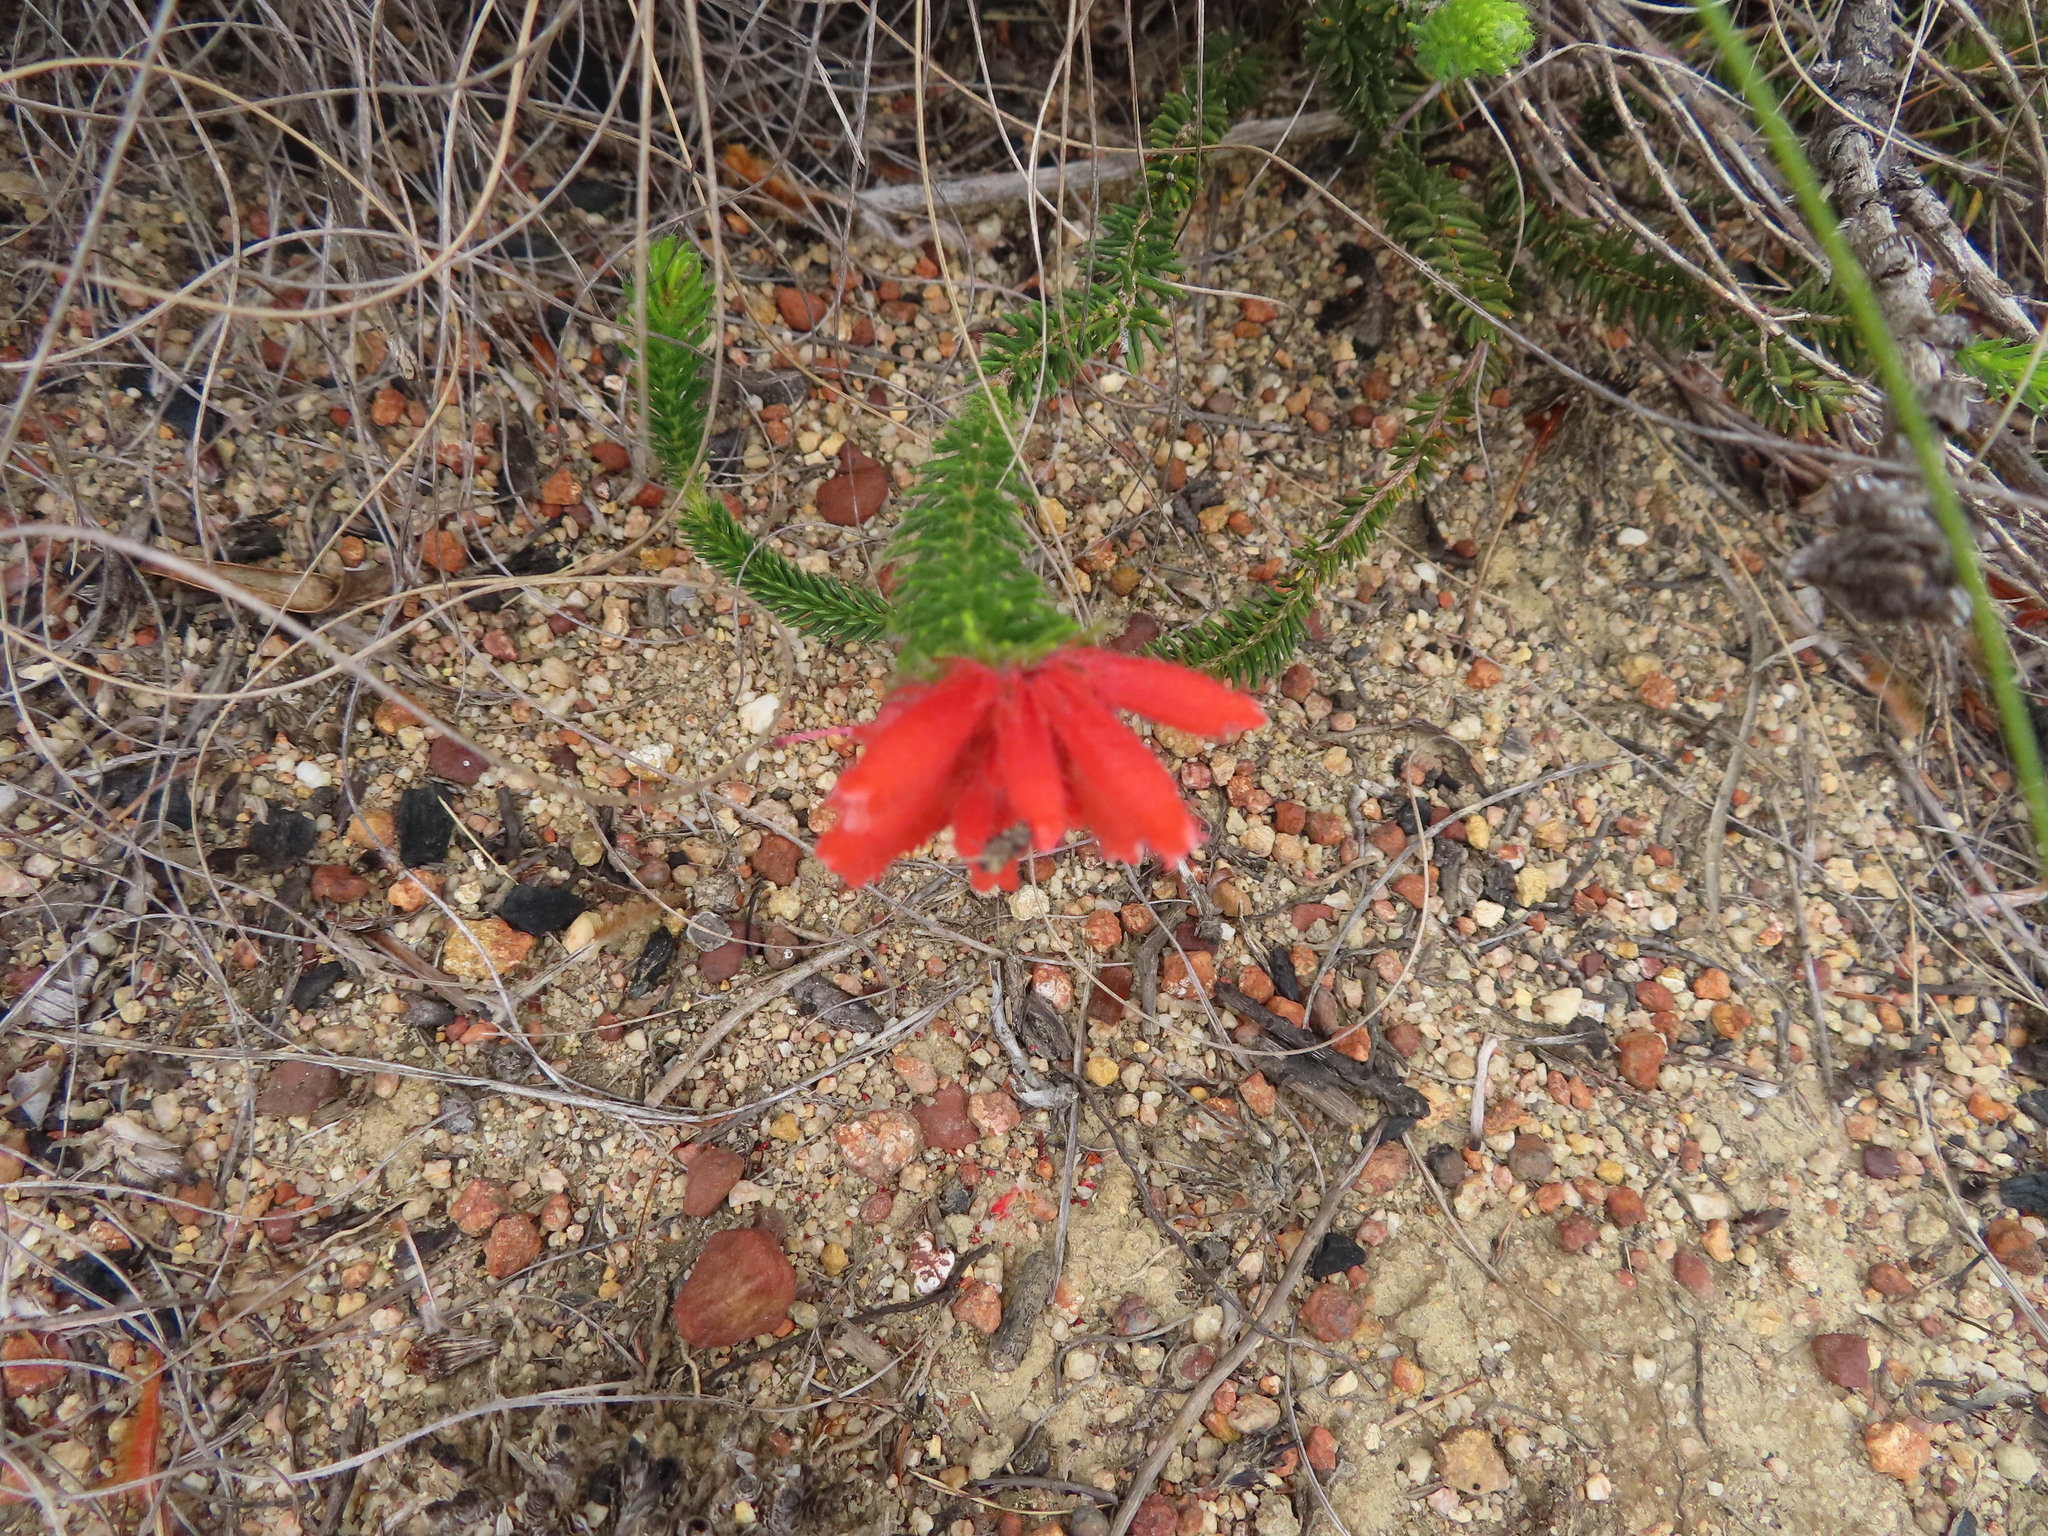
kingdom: Plantae
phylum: Tracheophyta
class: Magnoliopsida
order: Ericales
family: Ericaceae
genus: Erica
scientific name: Erica cerinthoides
